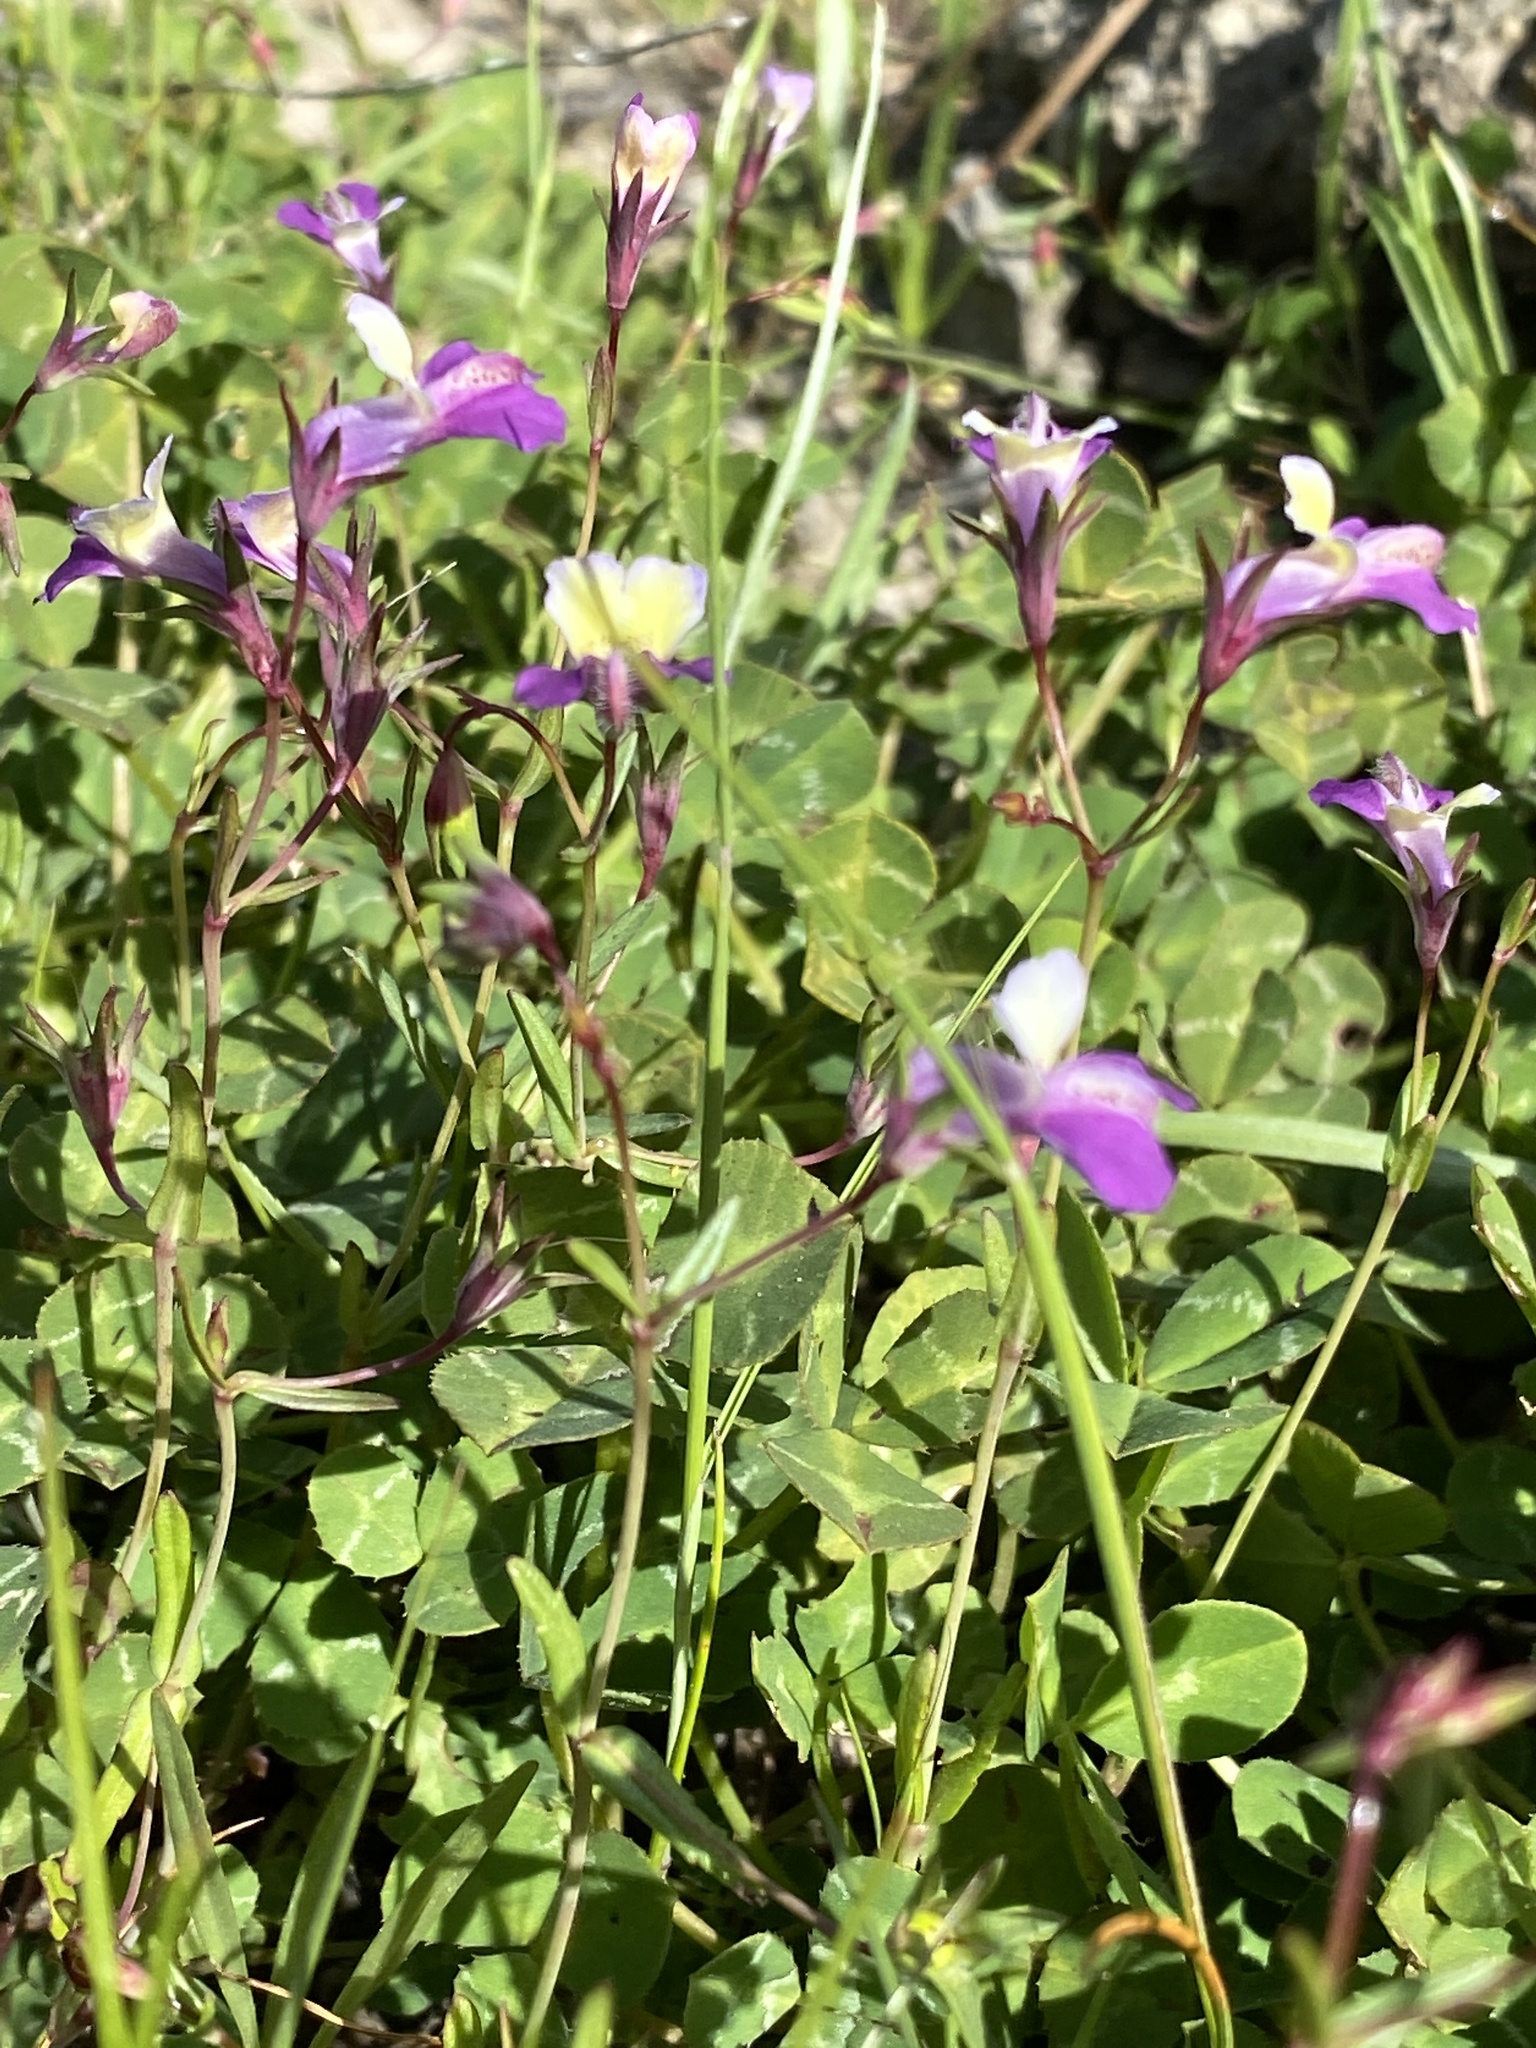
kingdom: Plantae
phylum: Tracheophyta
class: Magnoliopsida
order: Lamiales
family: Plantaginaceae
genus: Collinsia
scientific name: Collinsia sparsiflora
